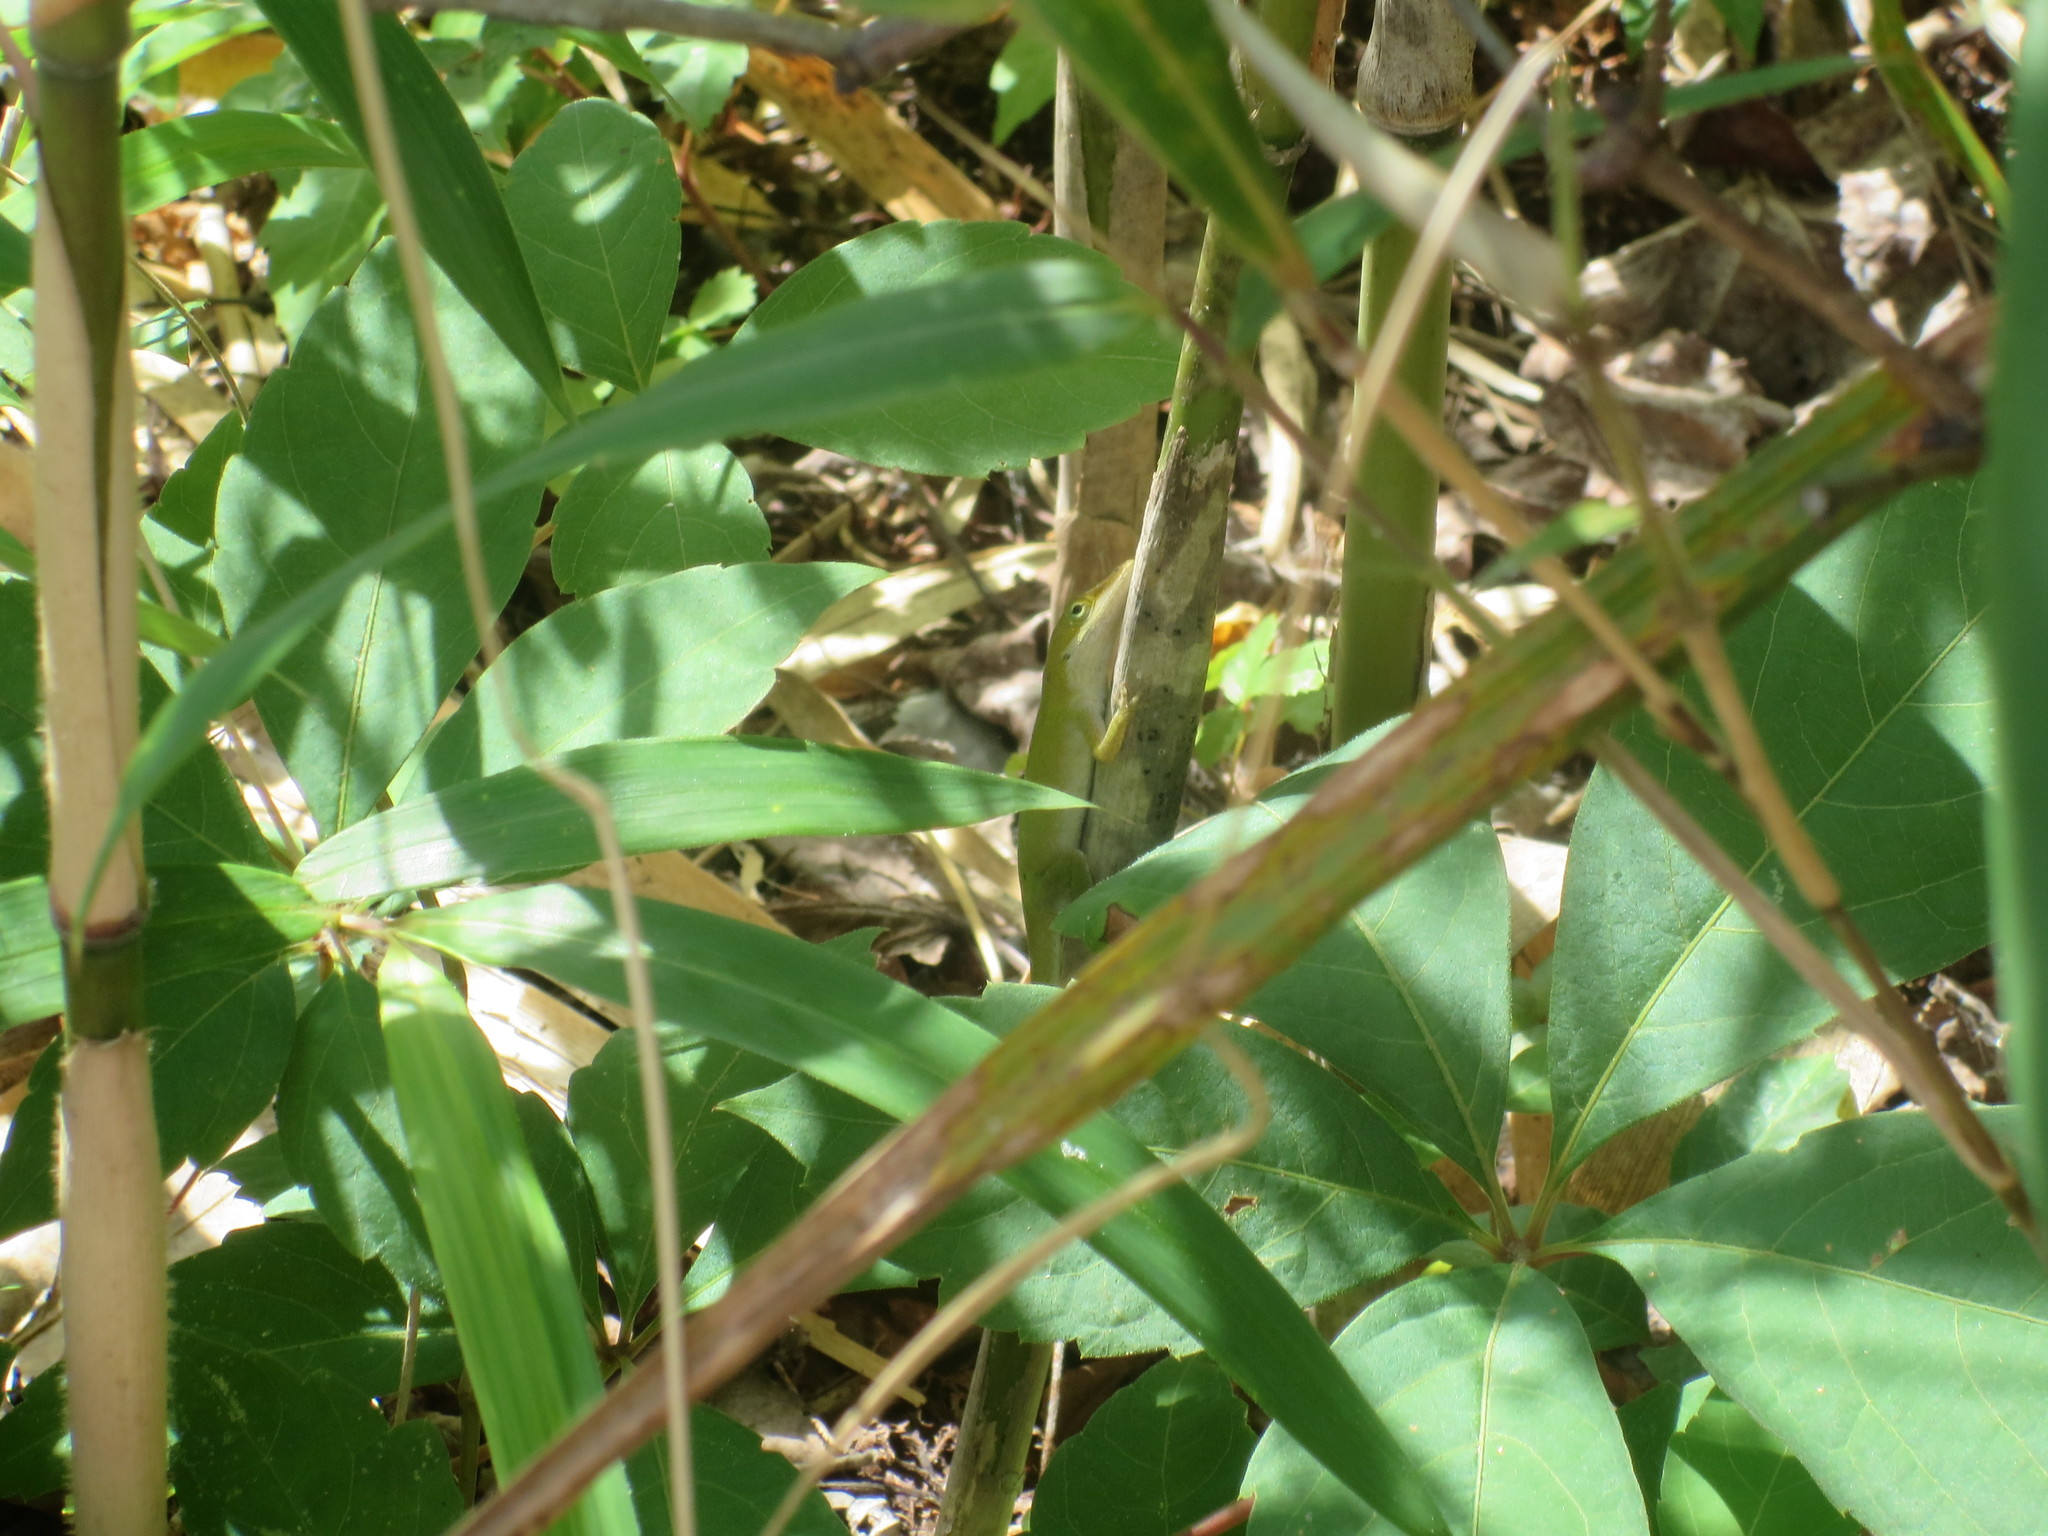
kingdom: Animalia
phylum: Chordata
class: Squamata
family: Dactyloidae
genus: Anolis
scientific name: Anolis carolinensis
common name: Green anole
